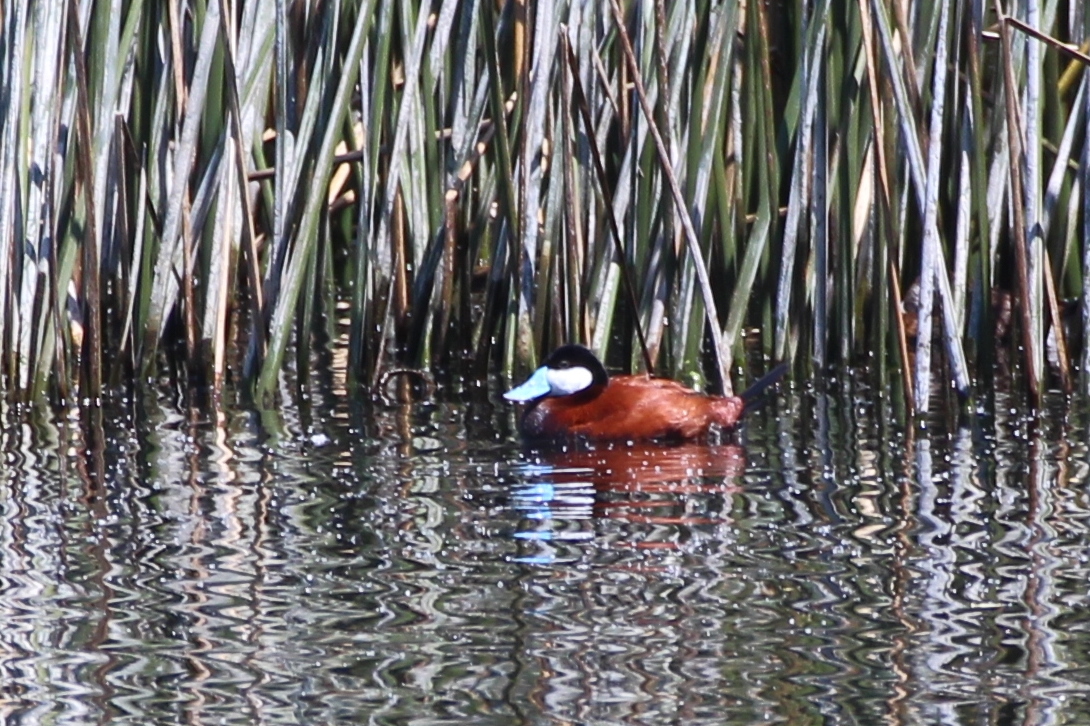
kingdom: Animalia
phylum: Chordata
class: Aves
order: Anseriformes
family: Anatidae
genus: Oxyura
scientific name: Oxyura jamaicensis
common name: Ruddy duck
